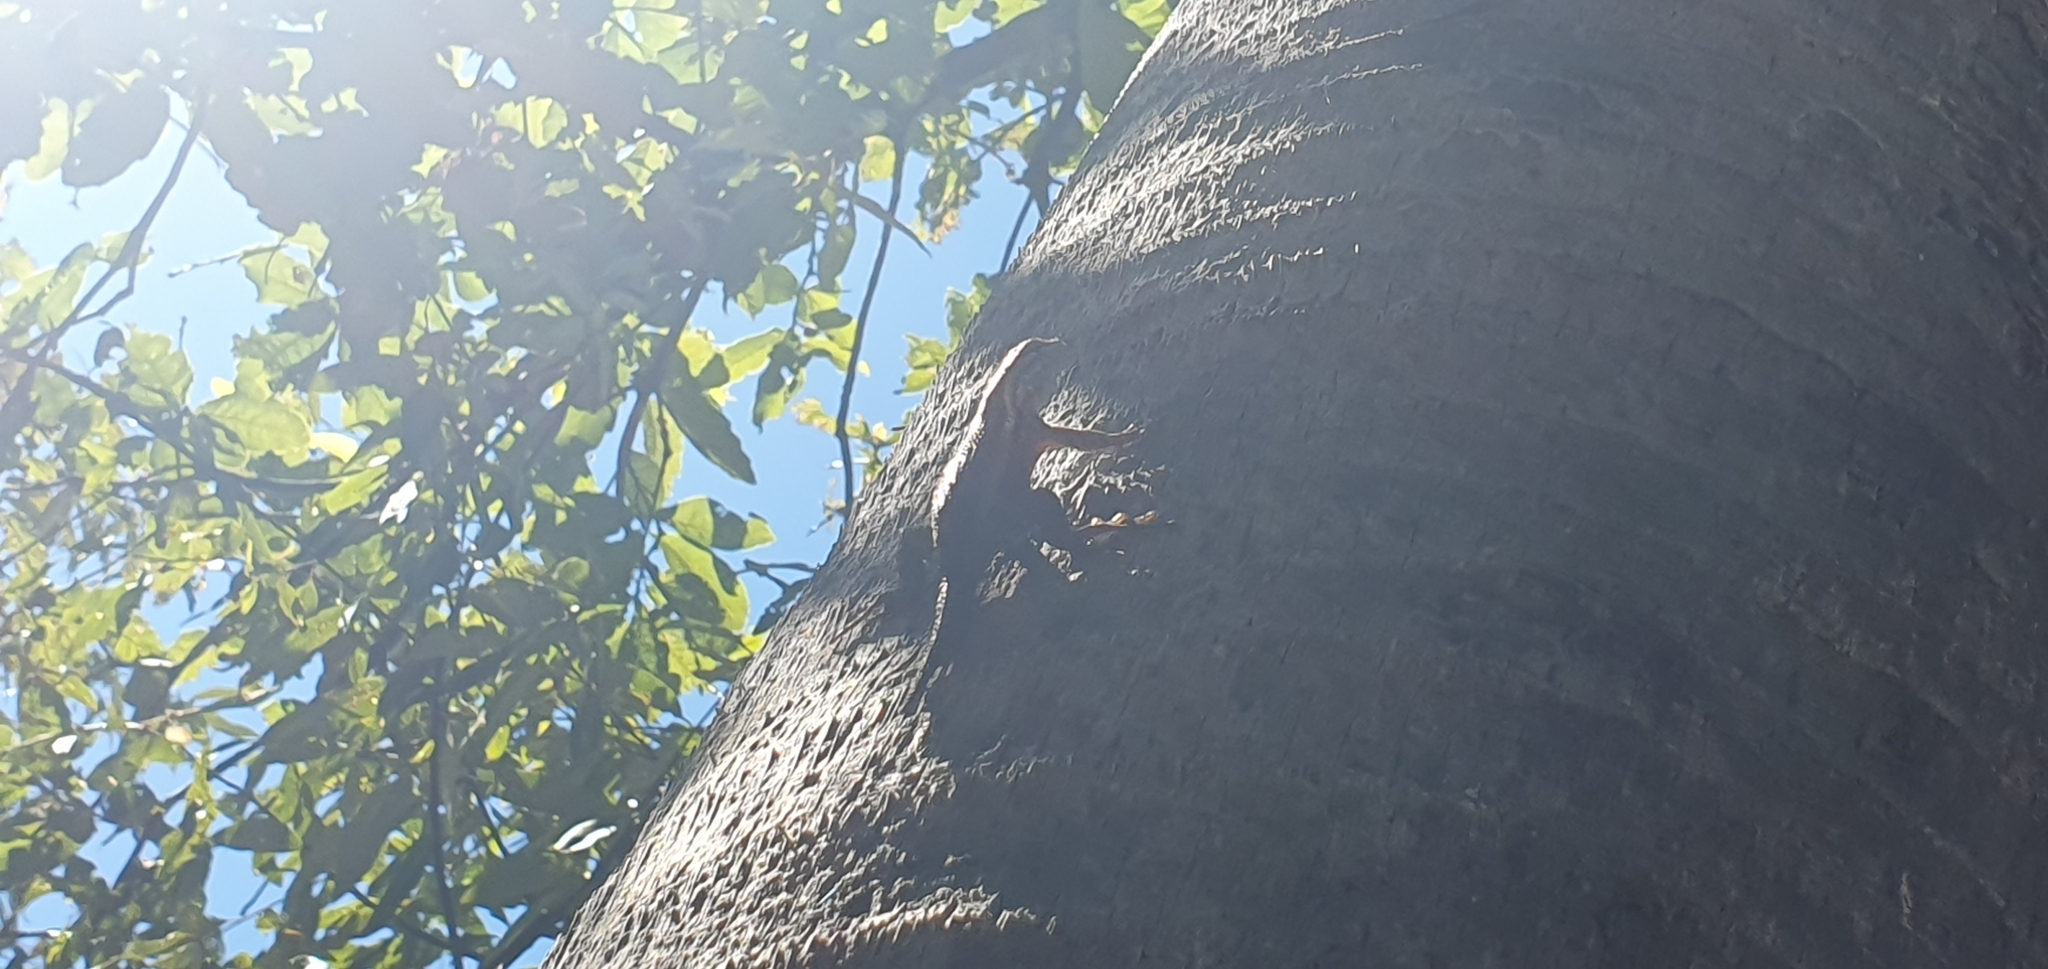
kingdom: Animalia
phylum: Chordata
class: Squamata
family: Phrynosomatidae
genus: Sceloporus
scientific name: Sceloporus licki
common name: Cape arboreal spiny lizard
